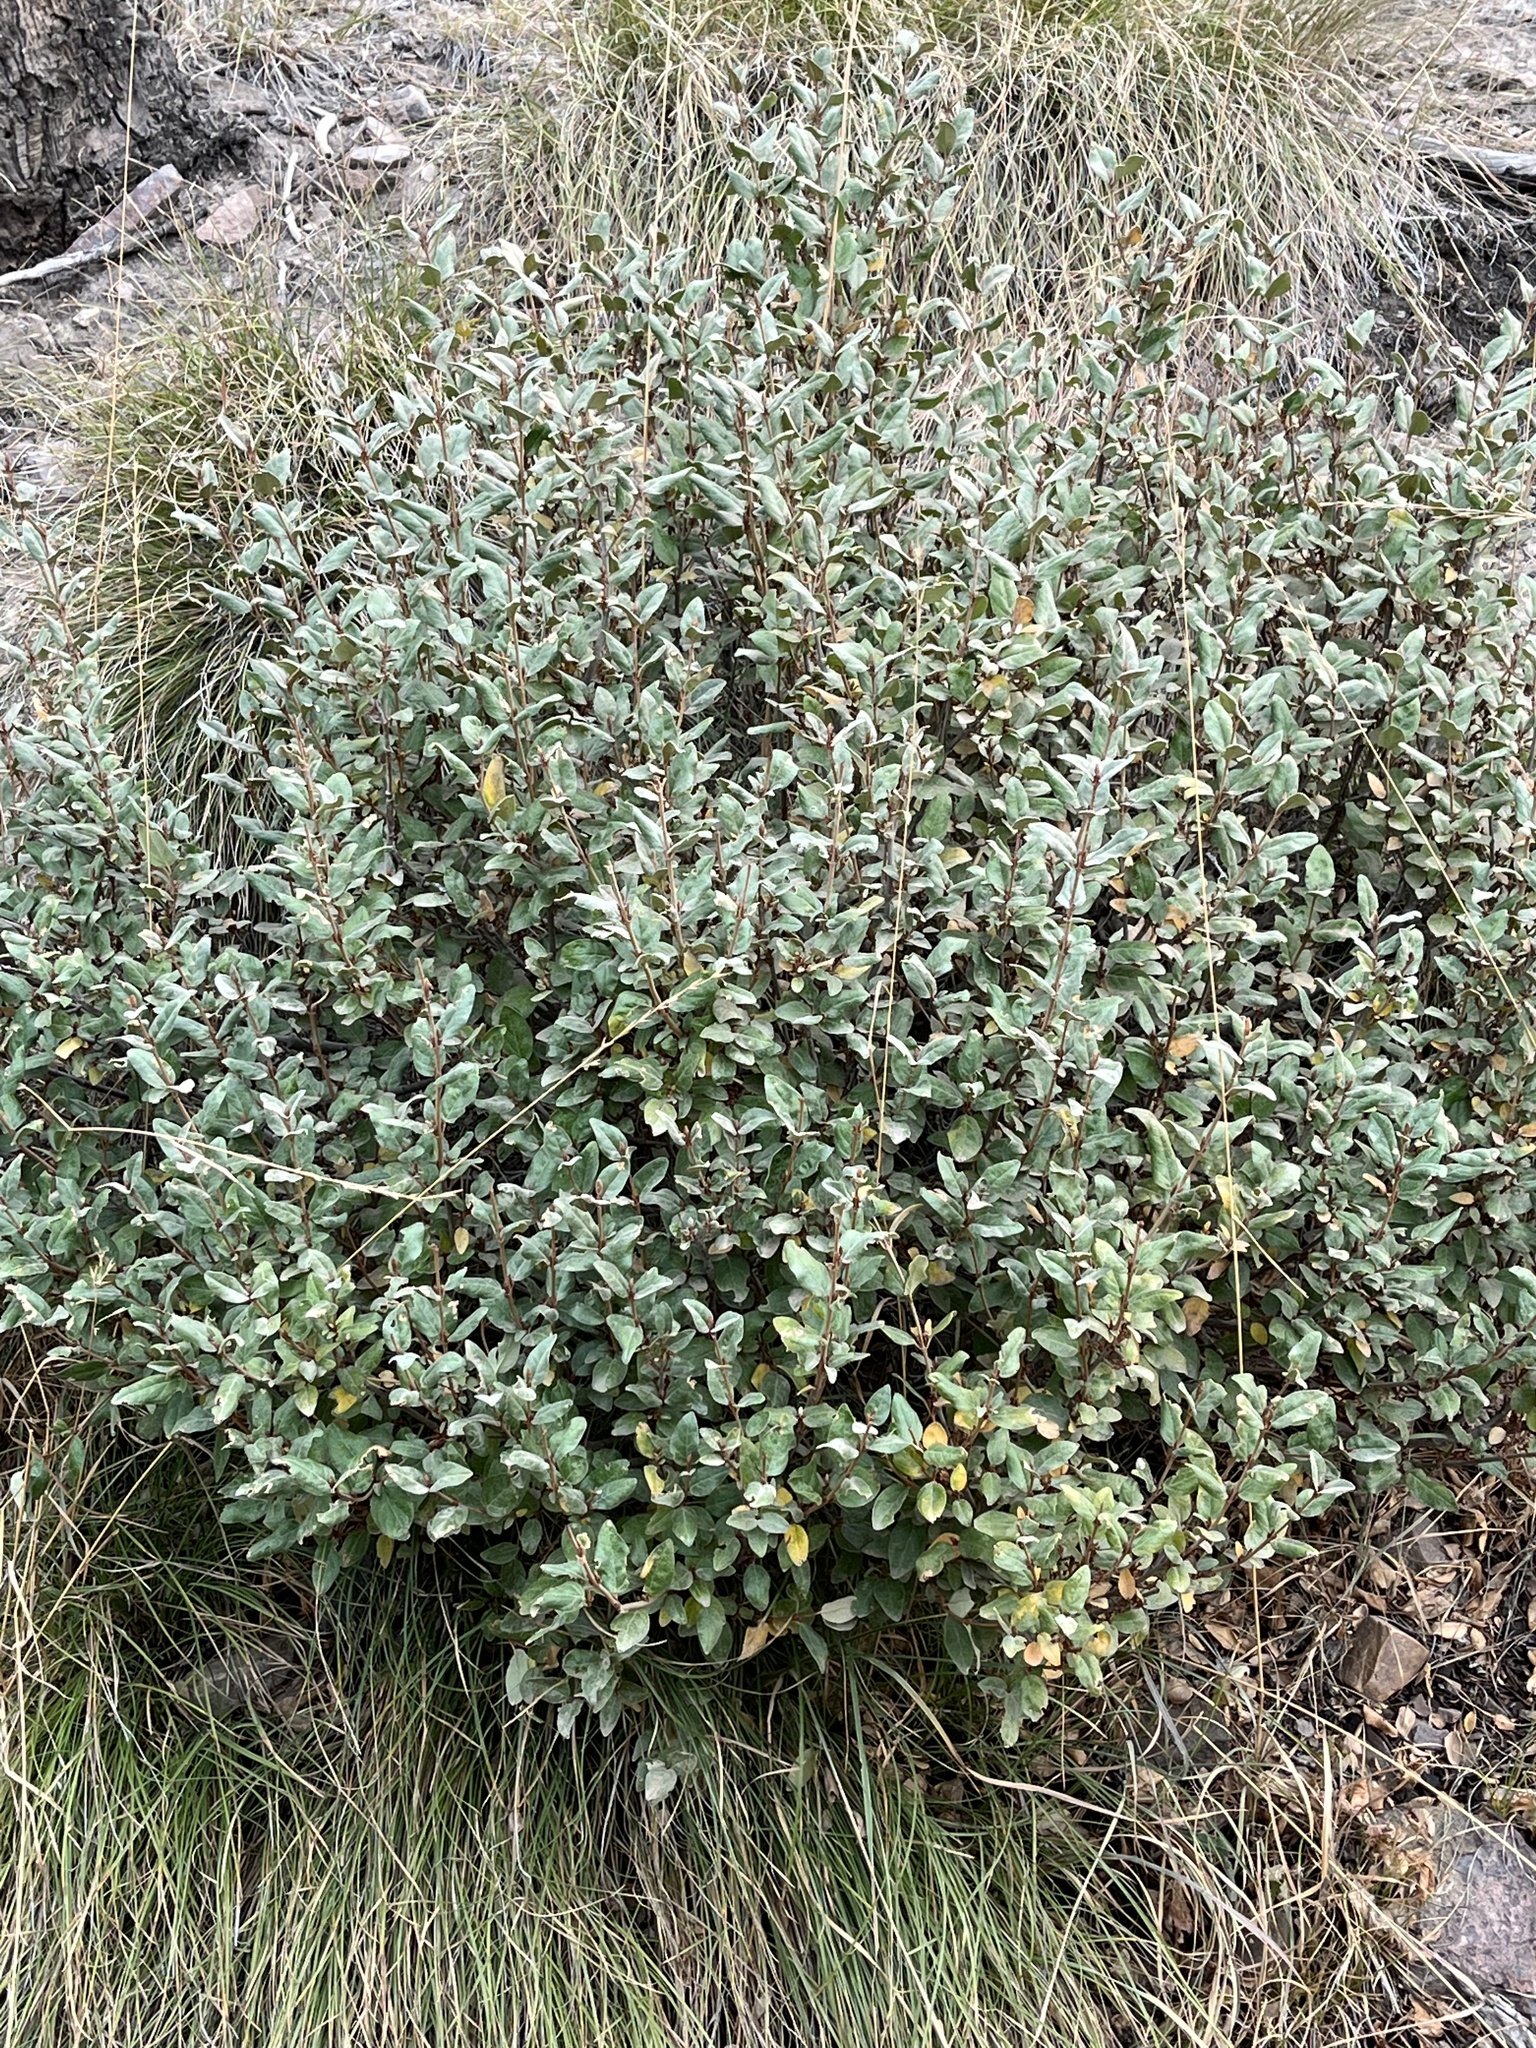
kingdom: Plantae
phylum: Tracheophyta
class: Magnoliopsida
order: Rosales
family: Elaeagnaceae
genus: Shepherdia
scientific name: Shepherdia canadensis
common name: Soapberry
